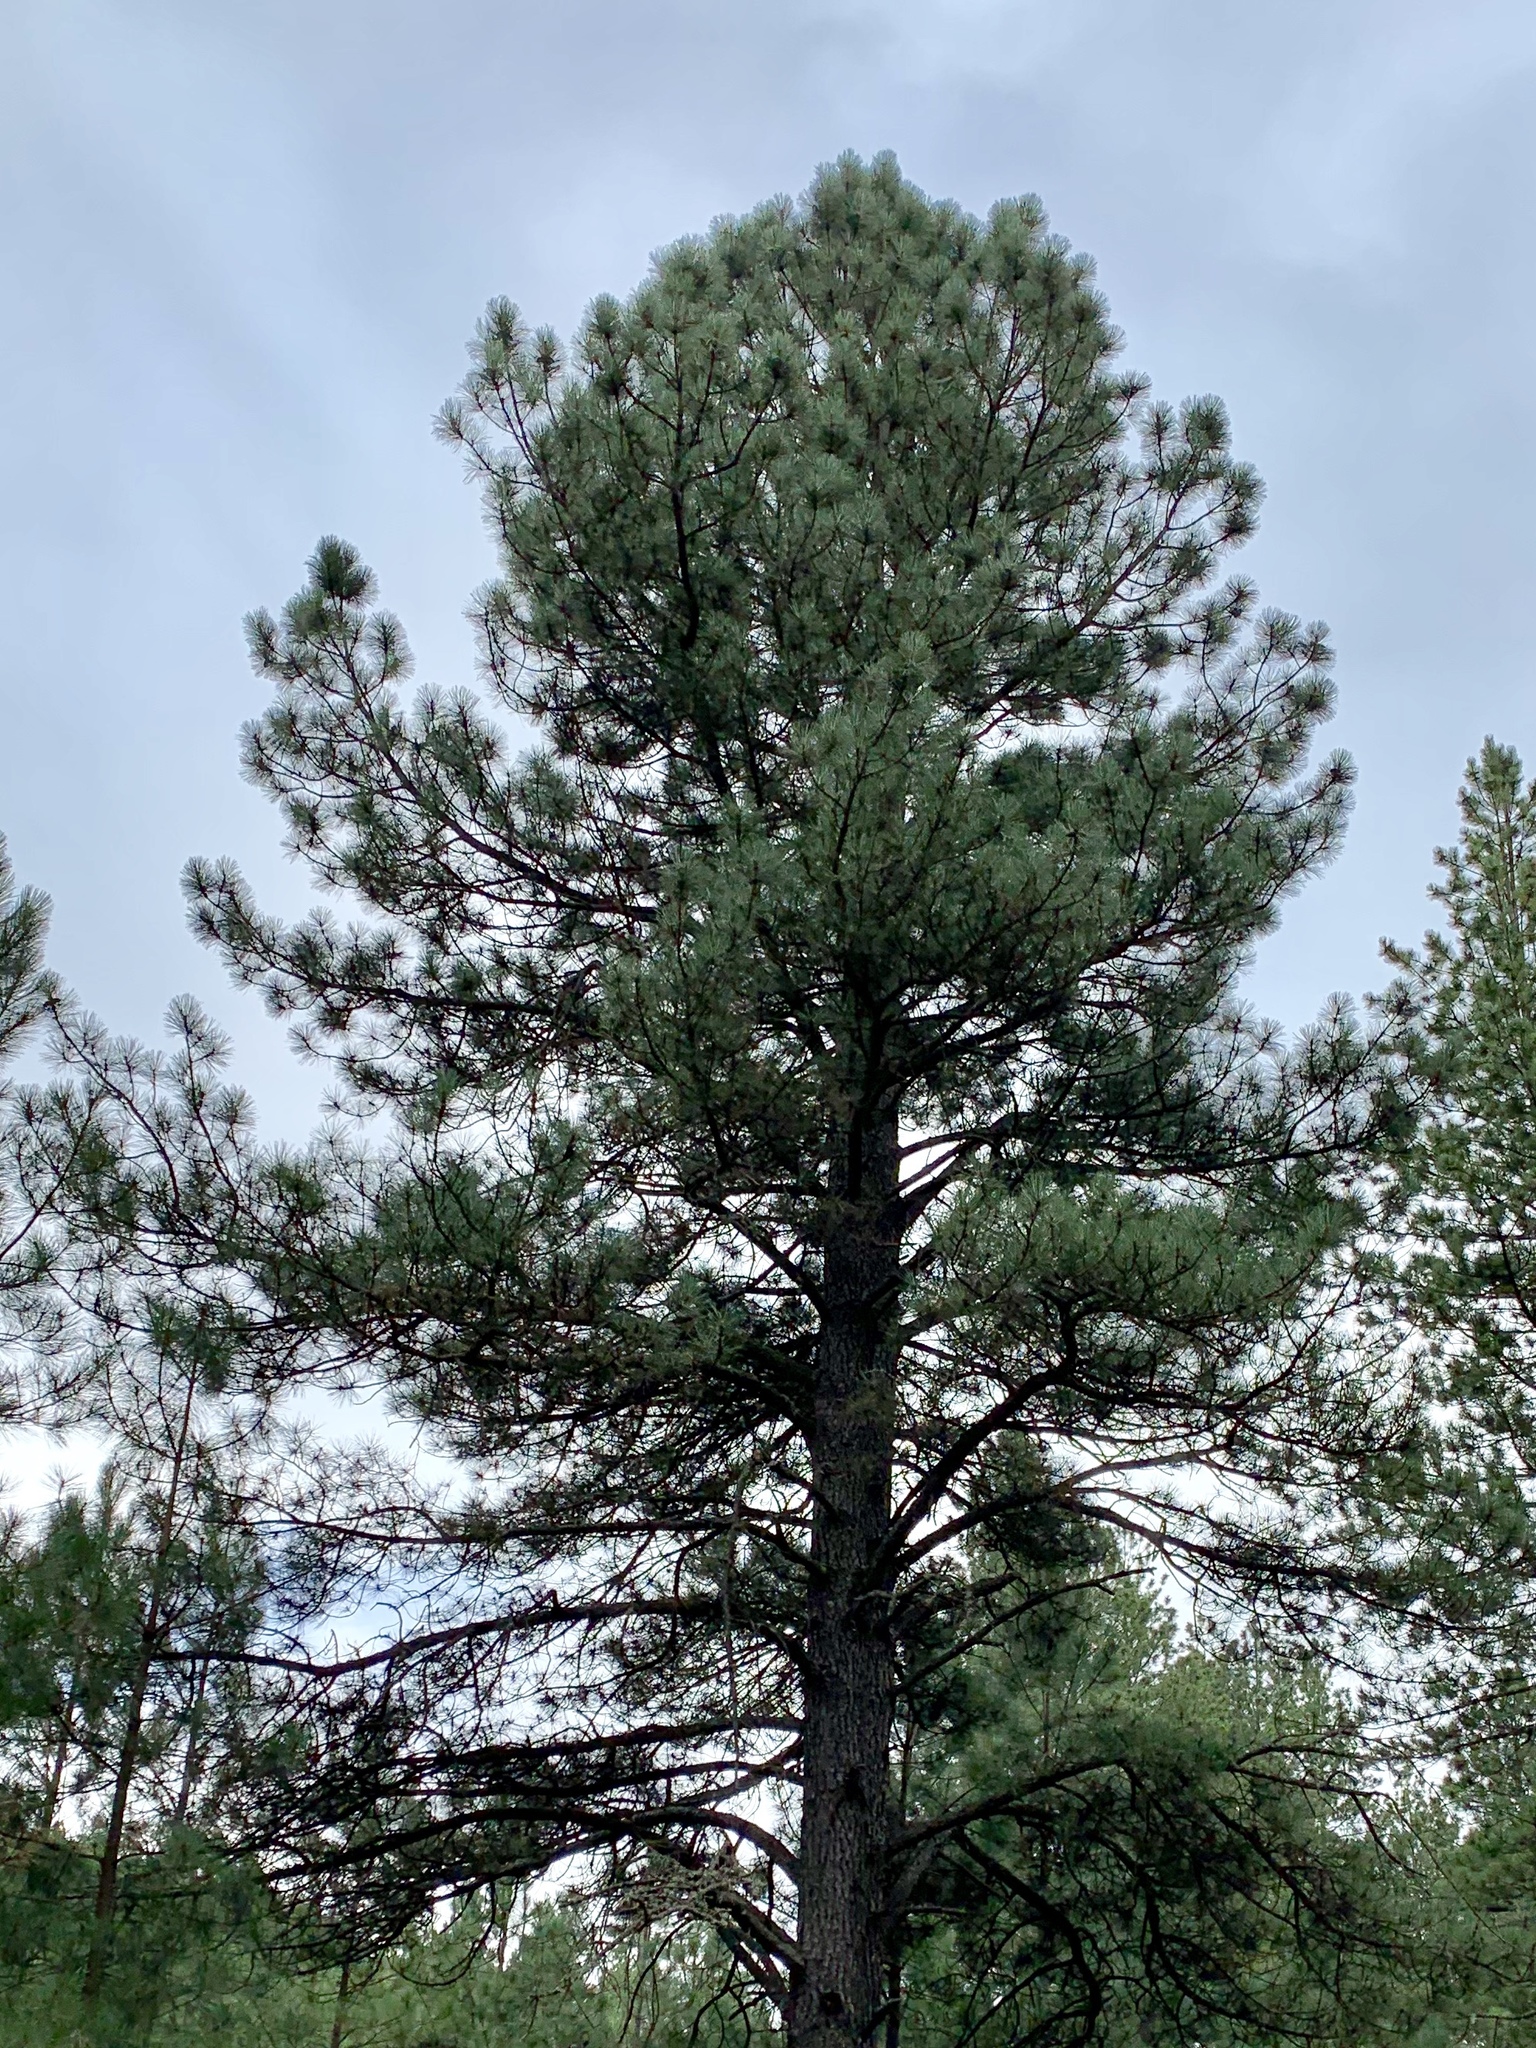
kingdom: Plantae
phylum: Tracheophyta
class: Pinopsida
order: Pinales
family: Pinaceae
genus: Pinus
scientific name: Pinus ponderosa
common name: Western yellow-pine
